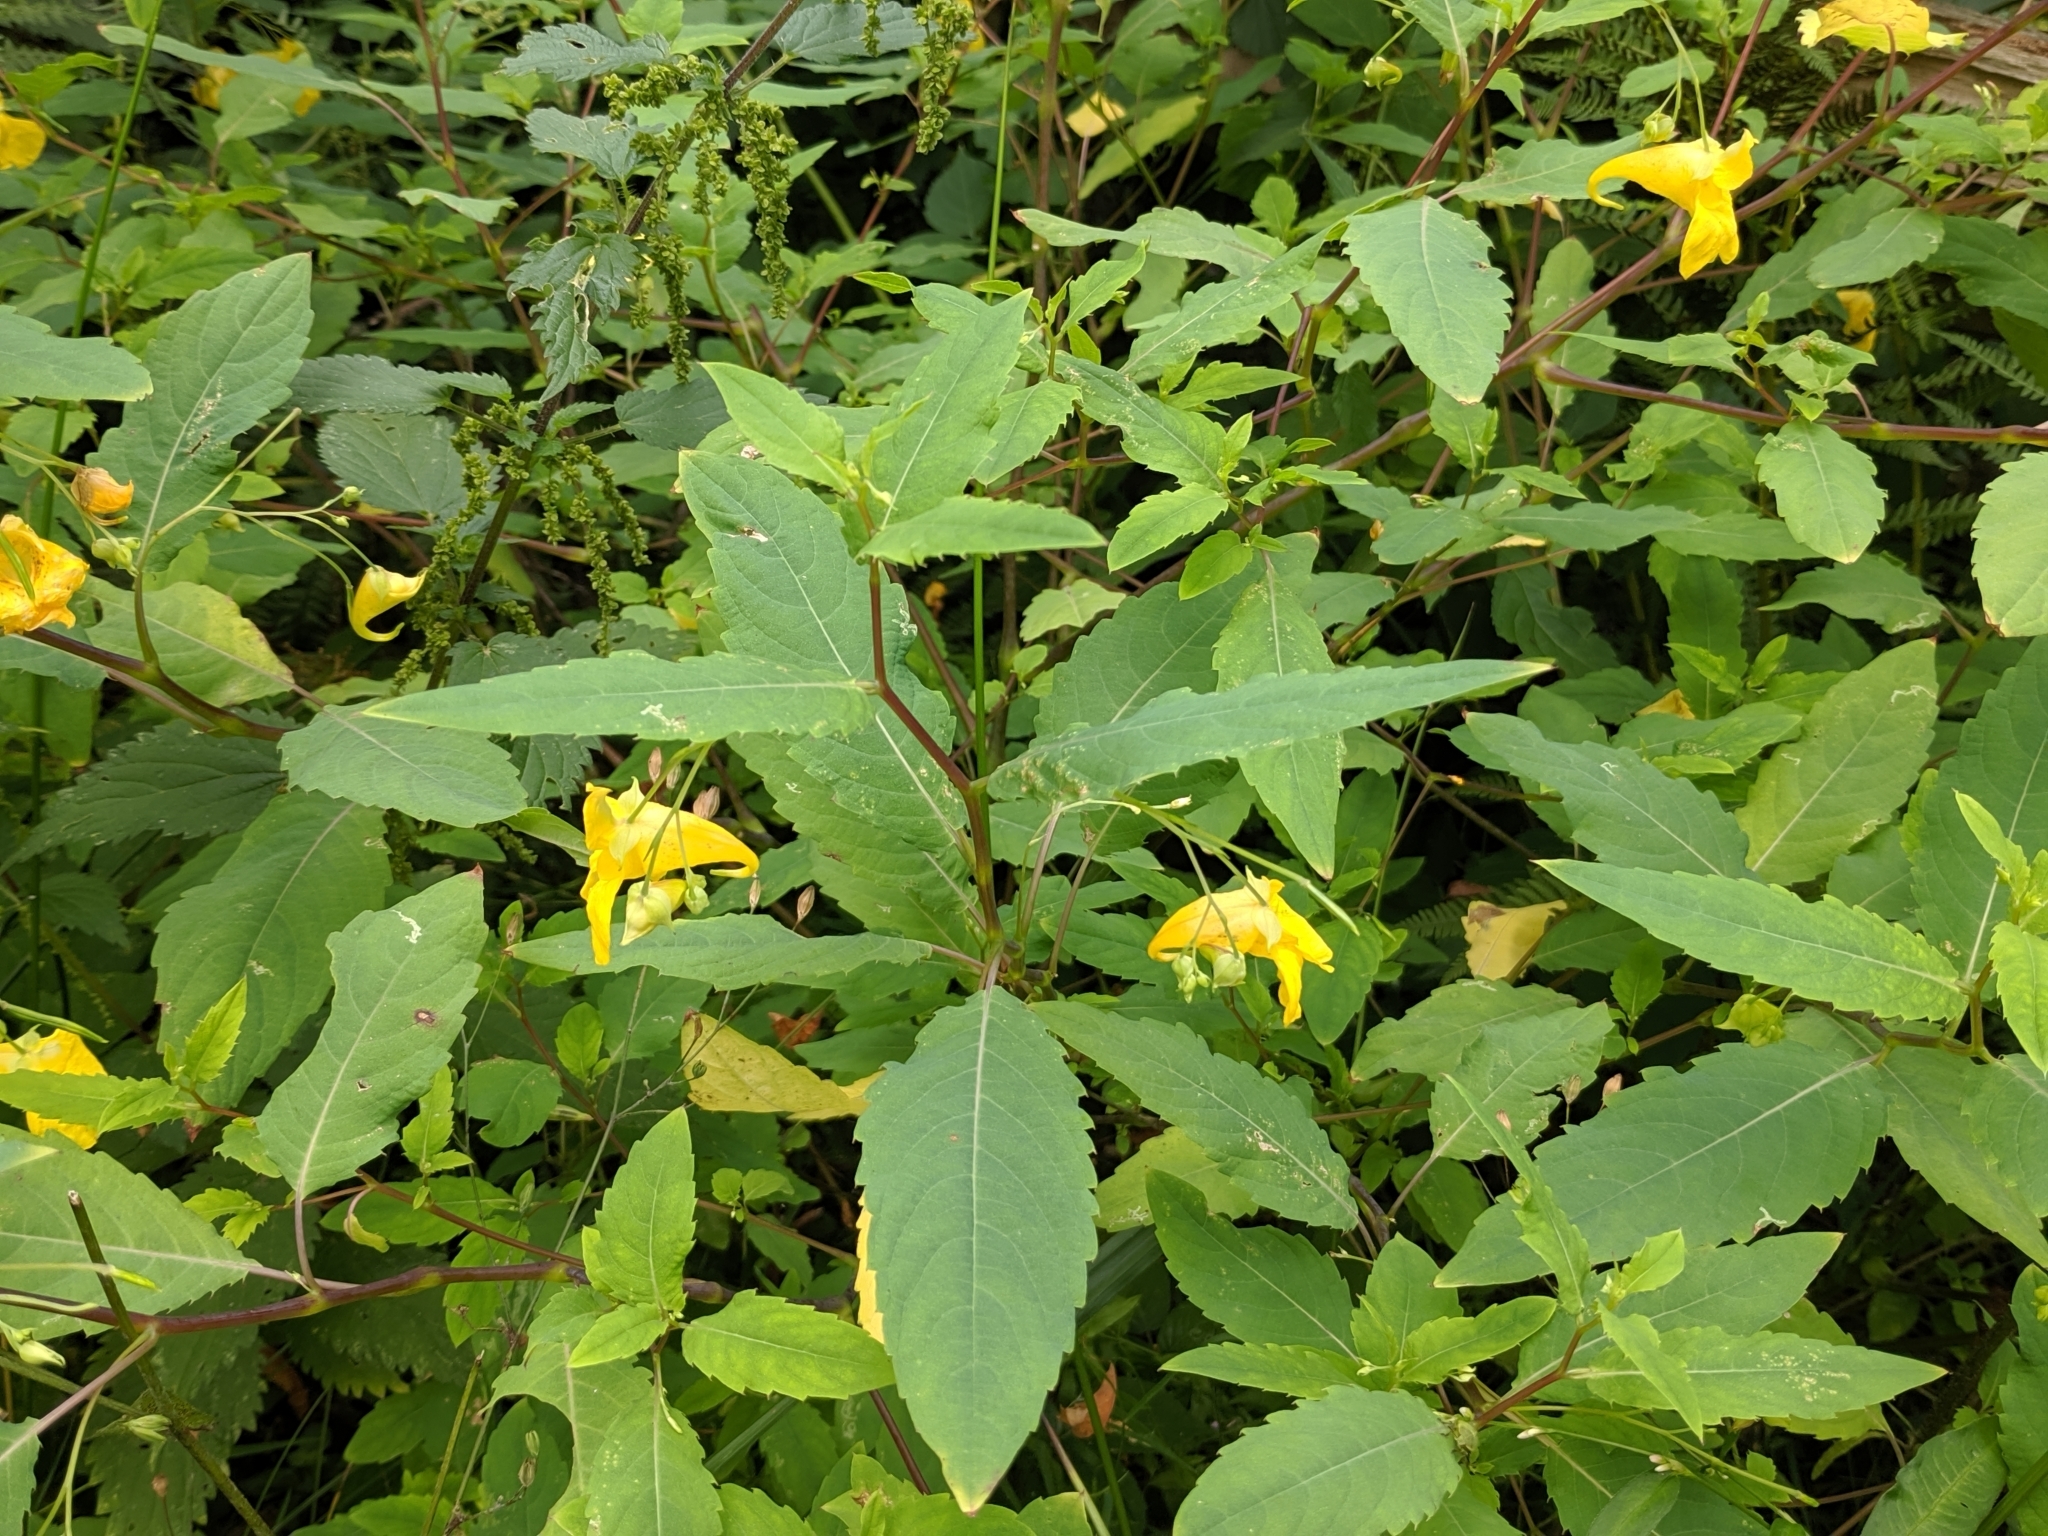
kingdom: Plantae
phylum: Tracheophyta
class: Magnoliopsida
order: Ericales
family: Balsaminaceae
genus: Impatiens
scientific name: Impatiens noli-tangere
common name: Touch-me-not balsam
